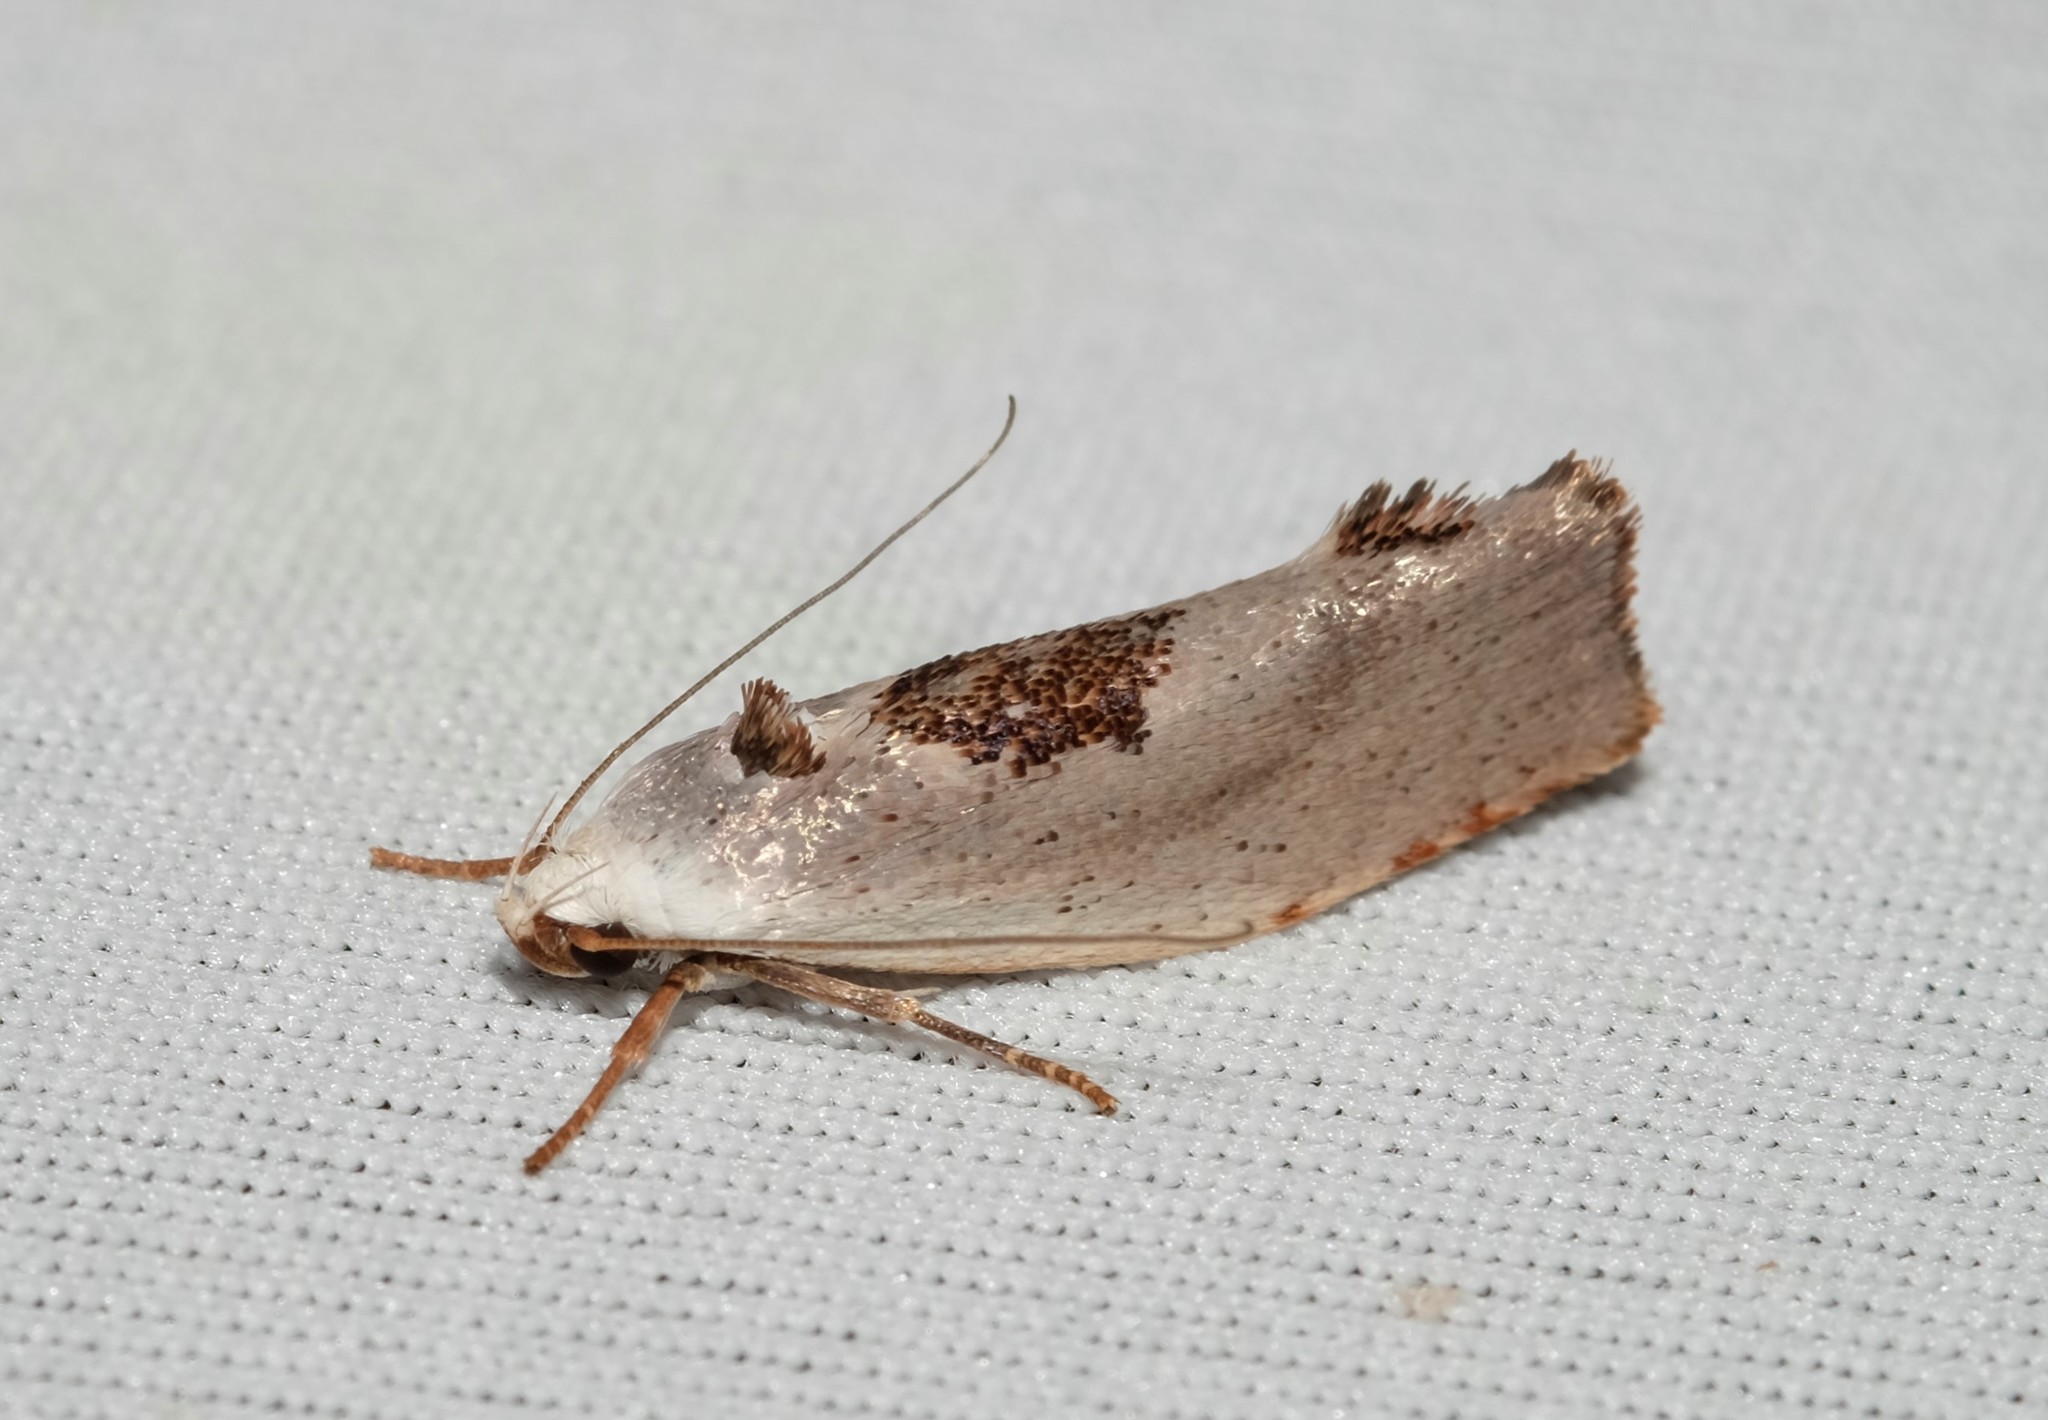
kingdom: Animalia
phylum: Arthropoda
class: Insecta
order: Lepidoptera
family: Xyloryctidae
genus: Tymbophora
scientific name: Tymbophora peltastis
